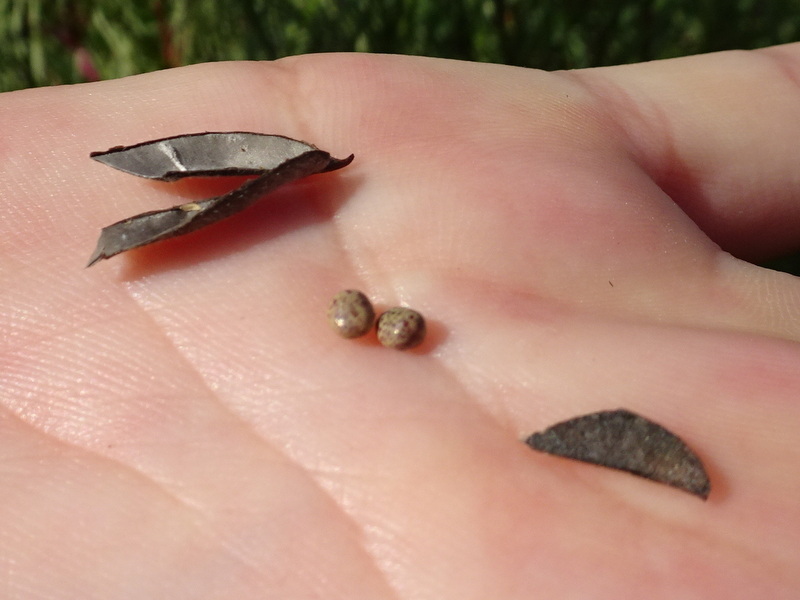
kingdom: Plantae
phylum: Tracheophyta
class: Magnoliopsida
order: Fabales
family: Fabaceae
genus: Lathyrus
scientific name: Lathyrus pratensis
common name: Meadow vetchling
